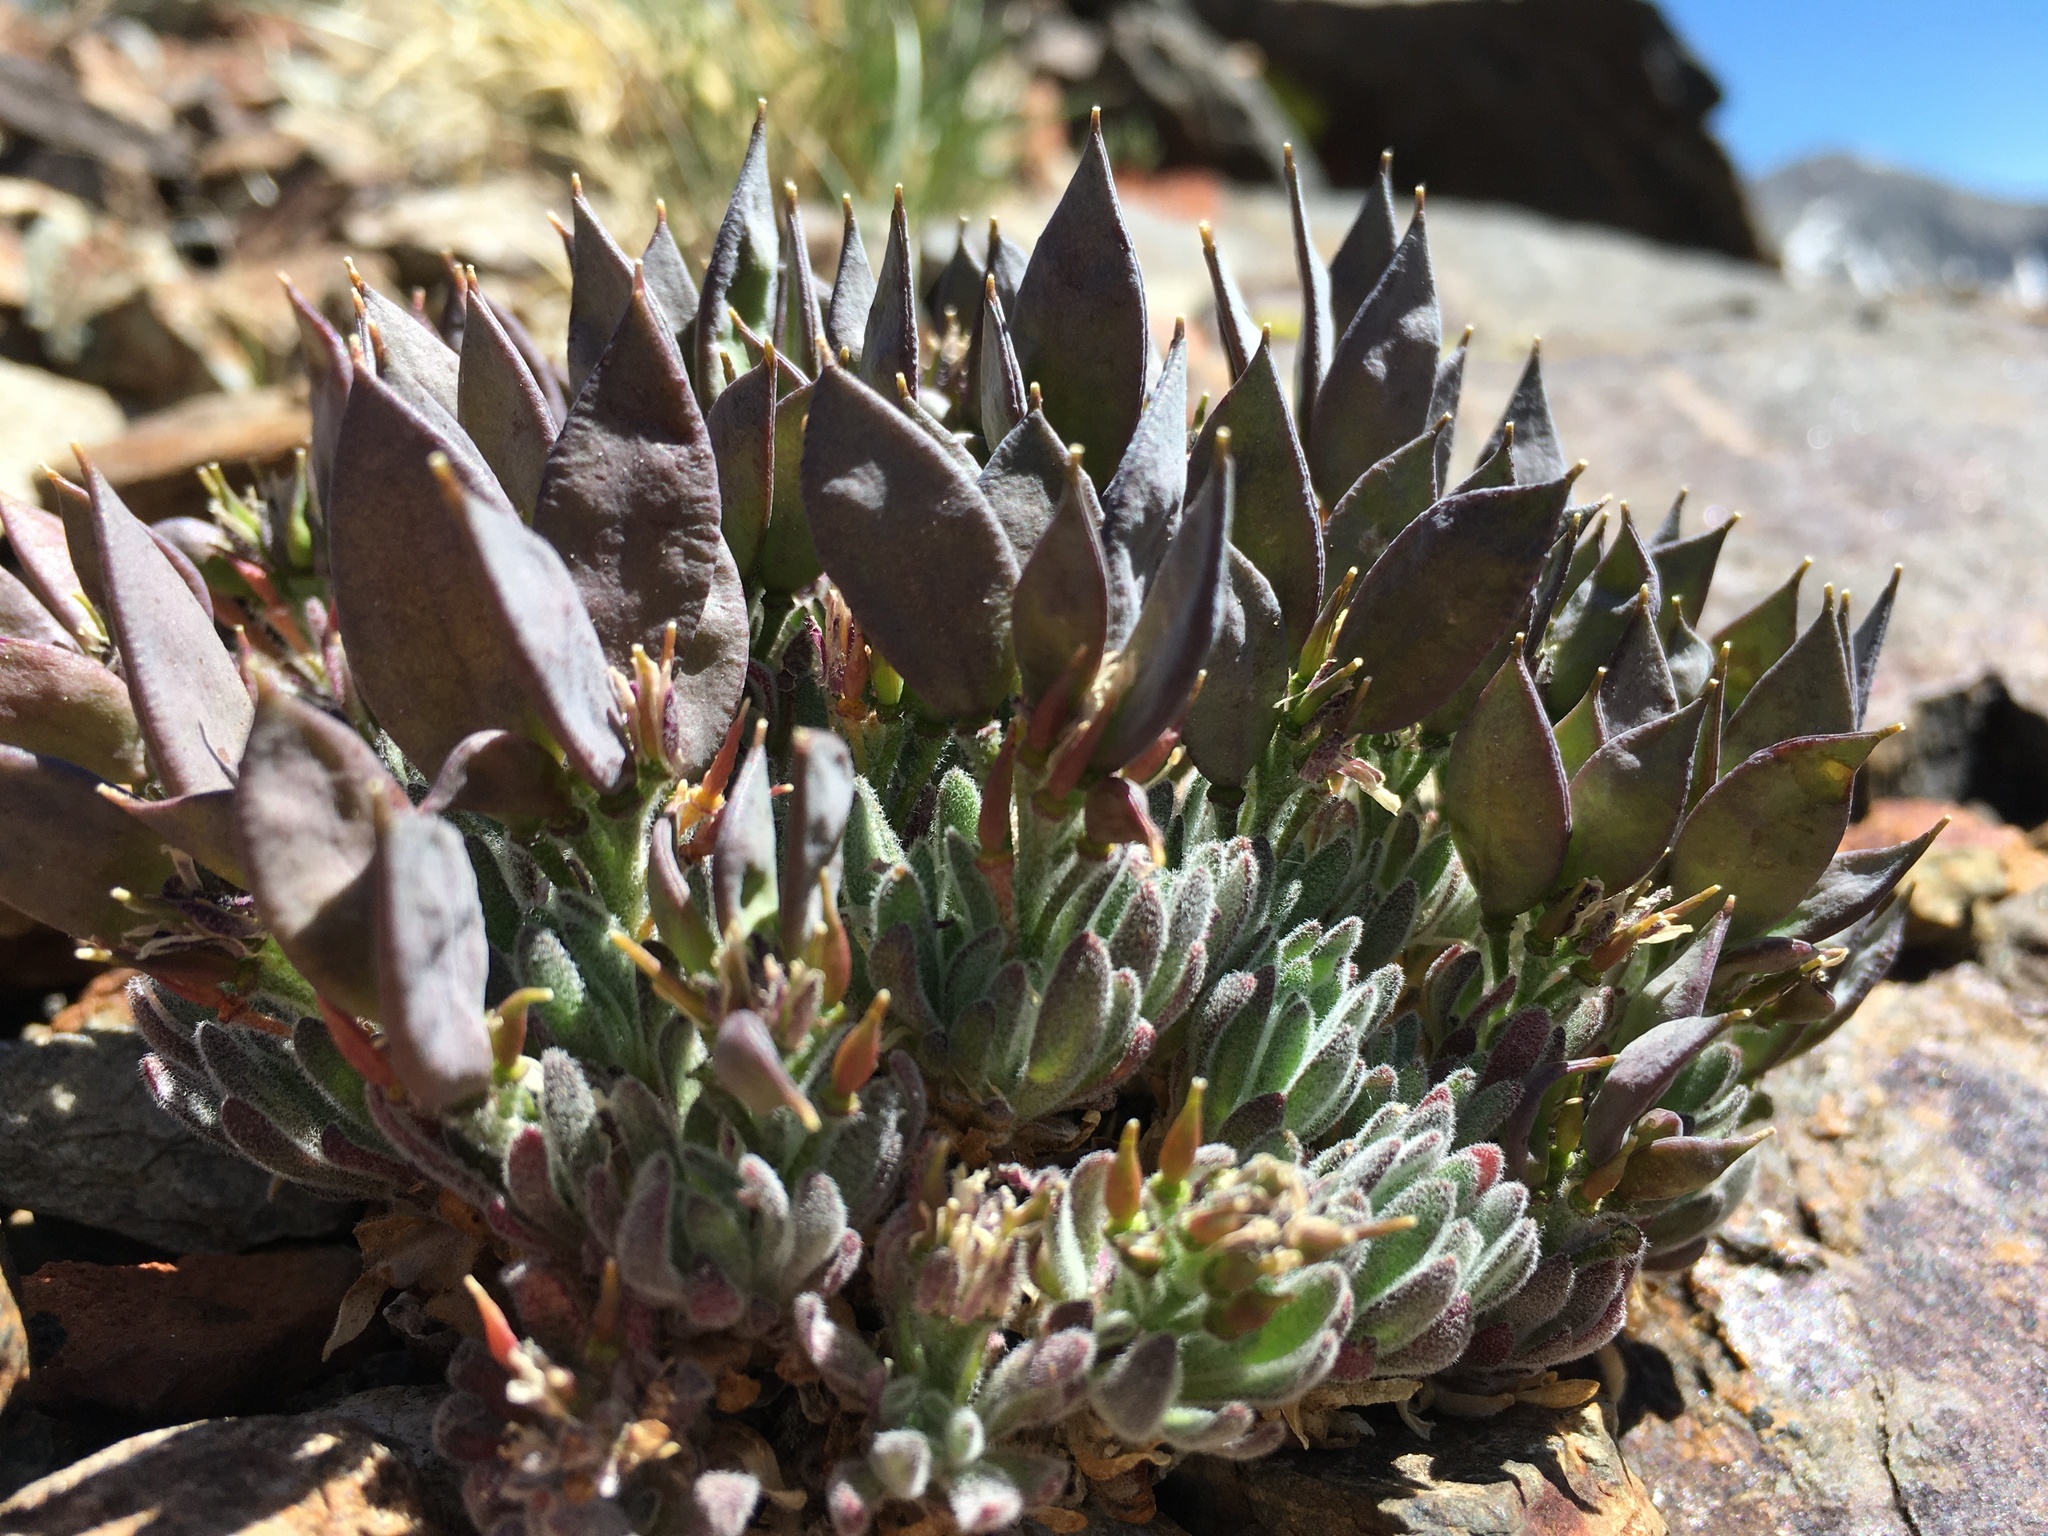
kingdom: Plantae
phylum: Tracheophyta
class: Magnoliopsida
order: Brassicales
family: Brassicaceae
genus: Anelsonia
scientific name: Anelsonia eurycarpa
